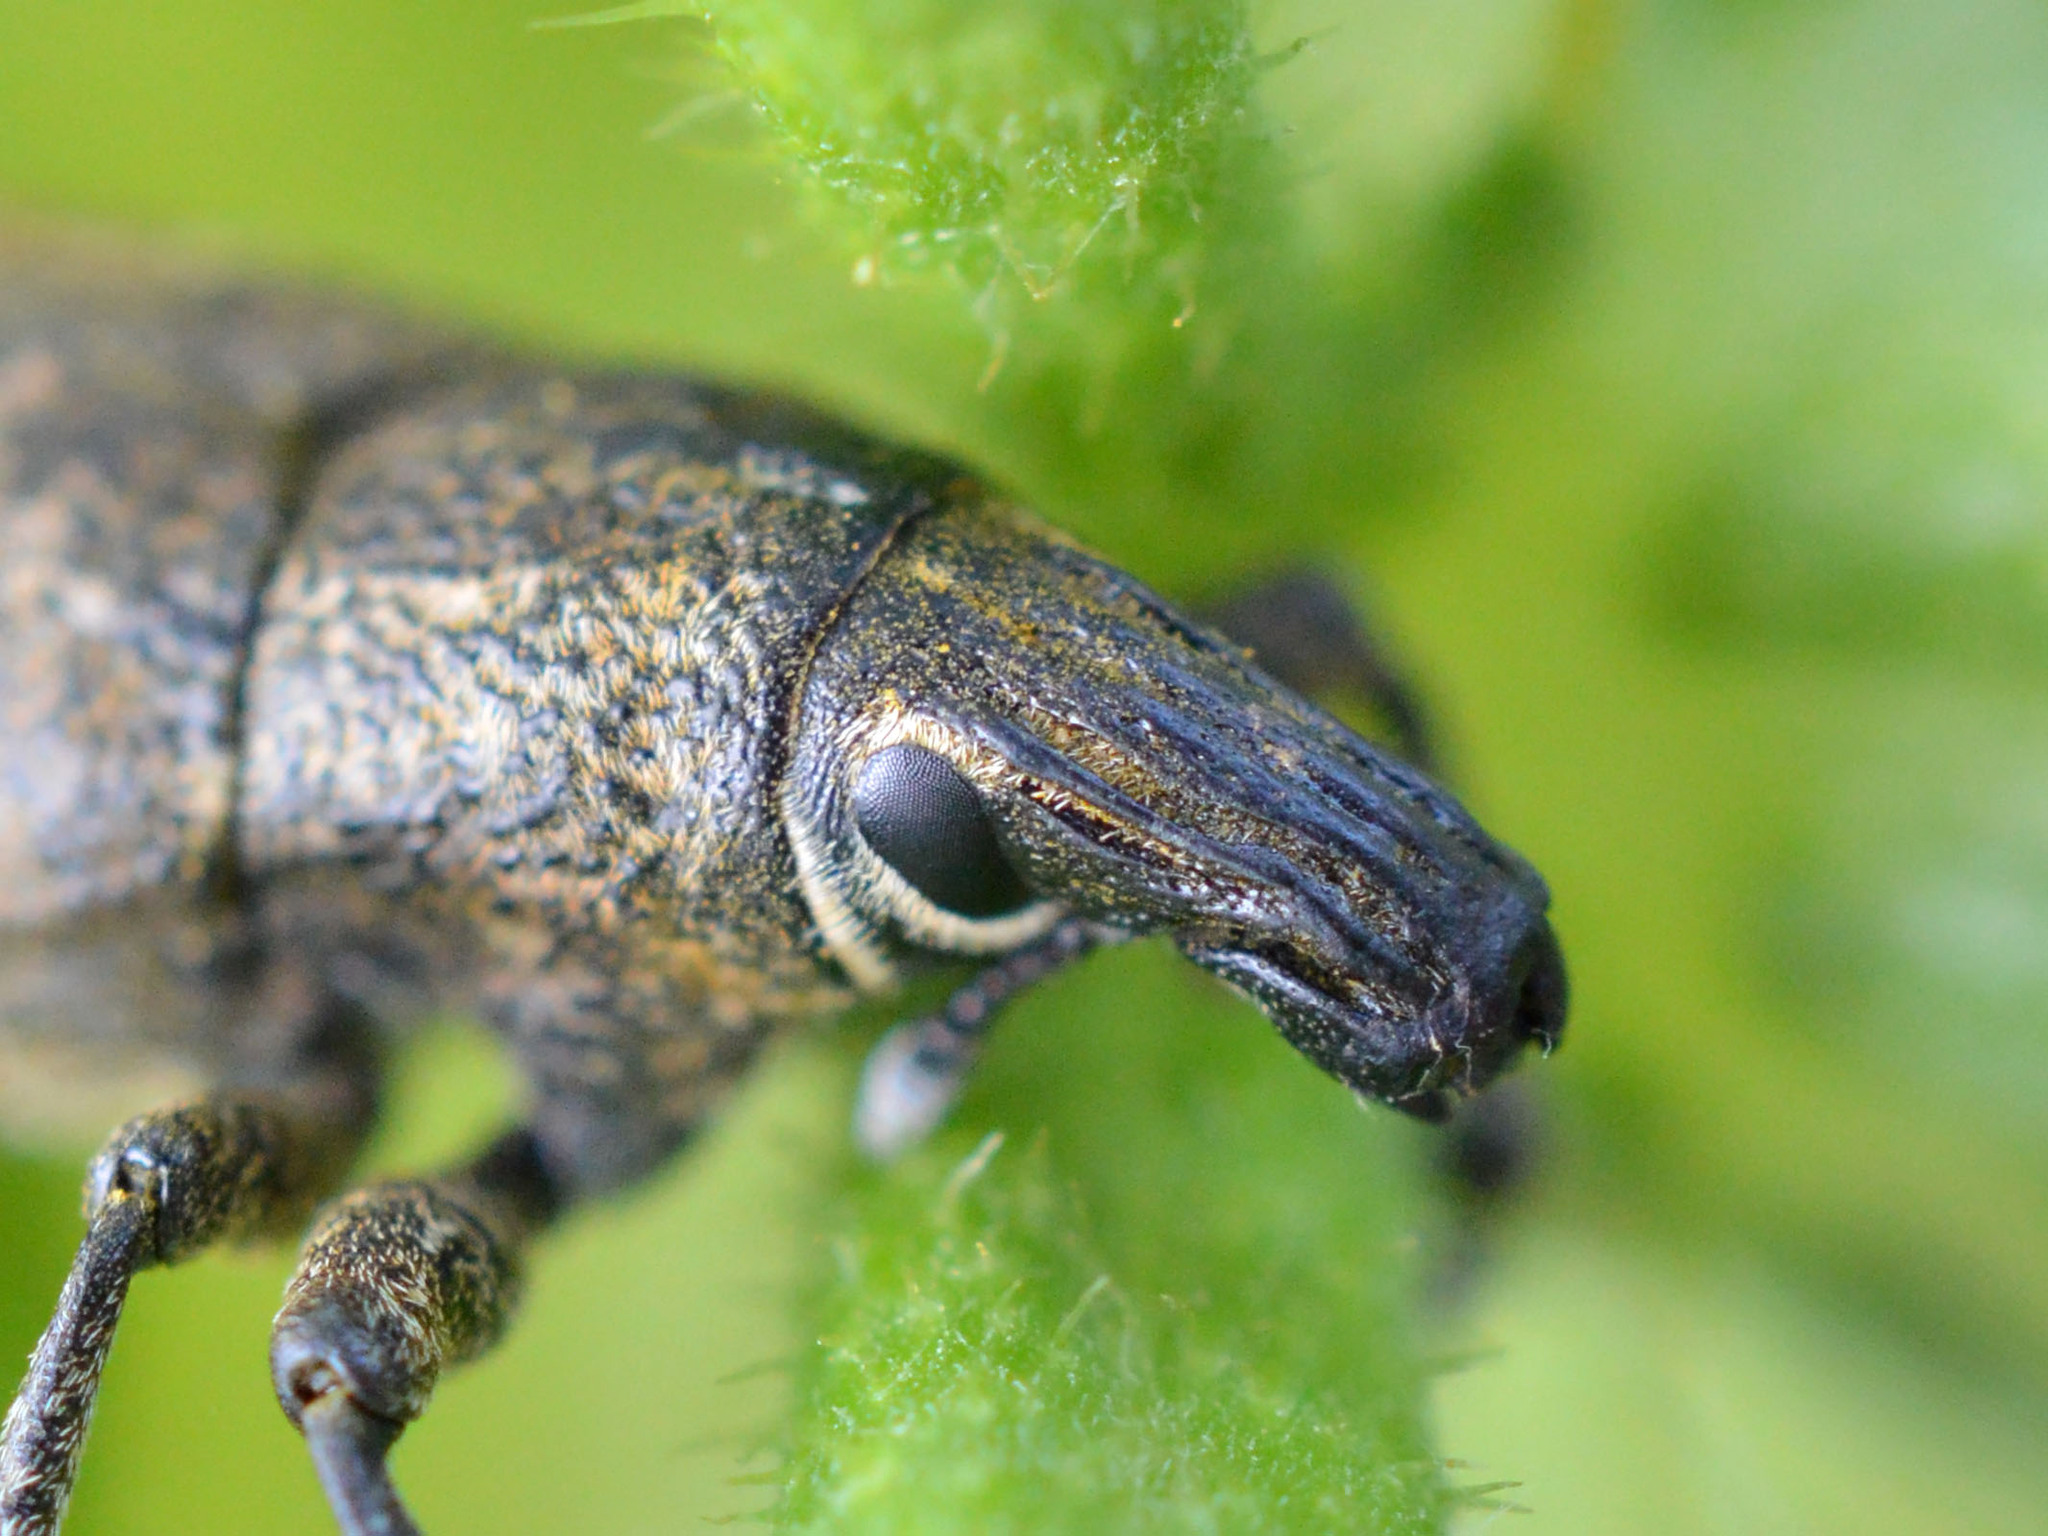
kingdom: Animalia
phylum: Arthropoda
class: Insecta
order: Coleoptera
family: Curculionidae
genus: Cleonis
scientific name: Cleonis pigra
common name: Large thistle weevil
